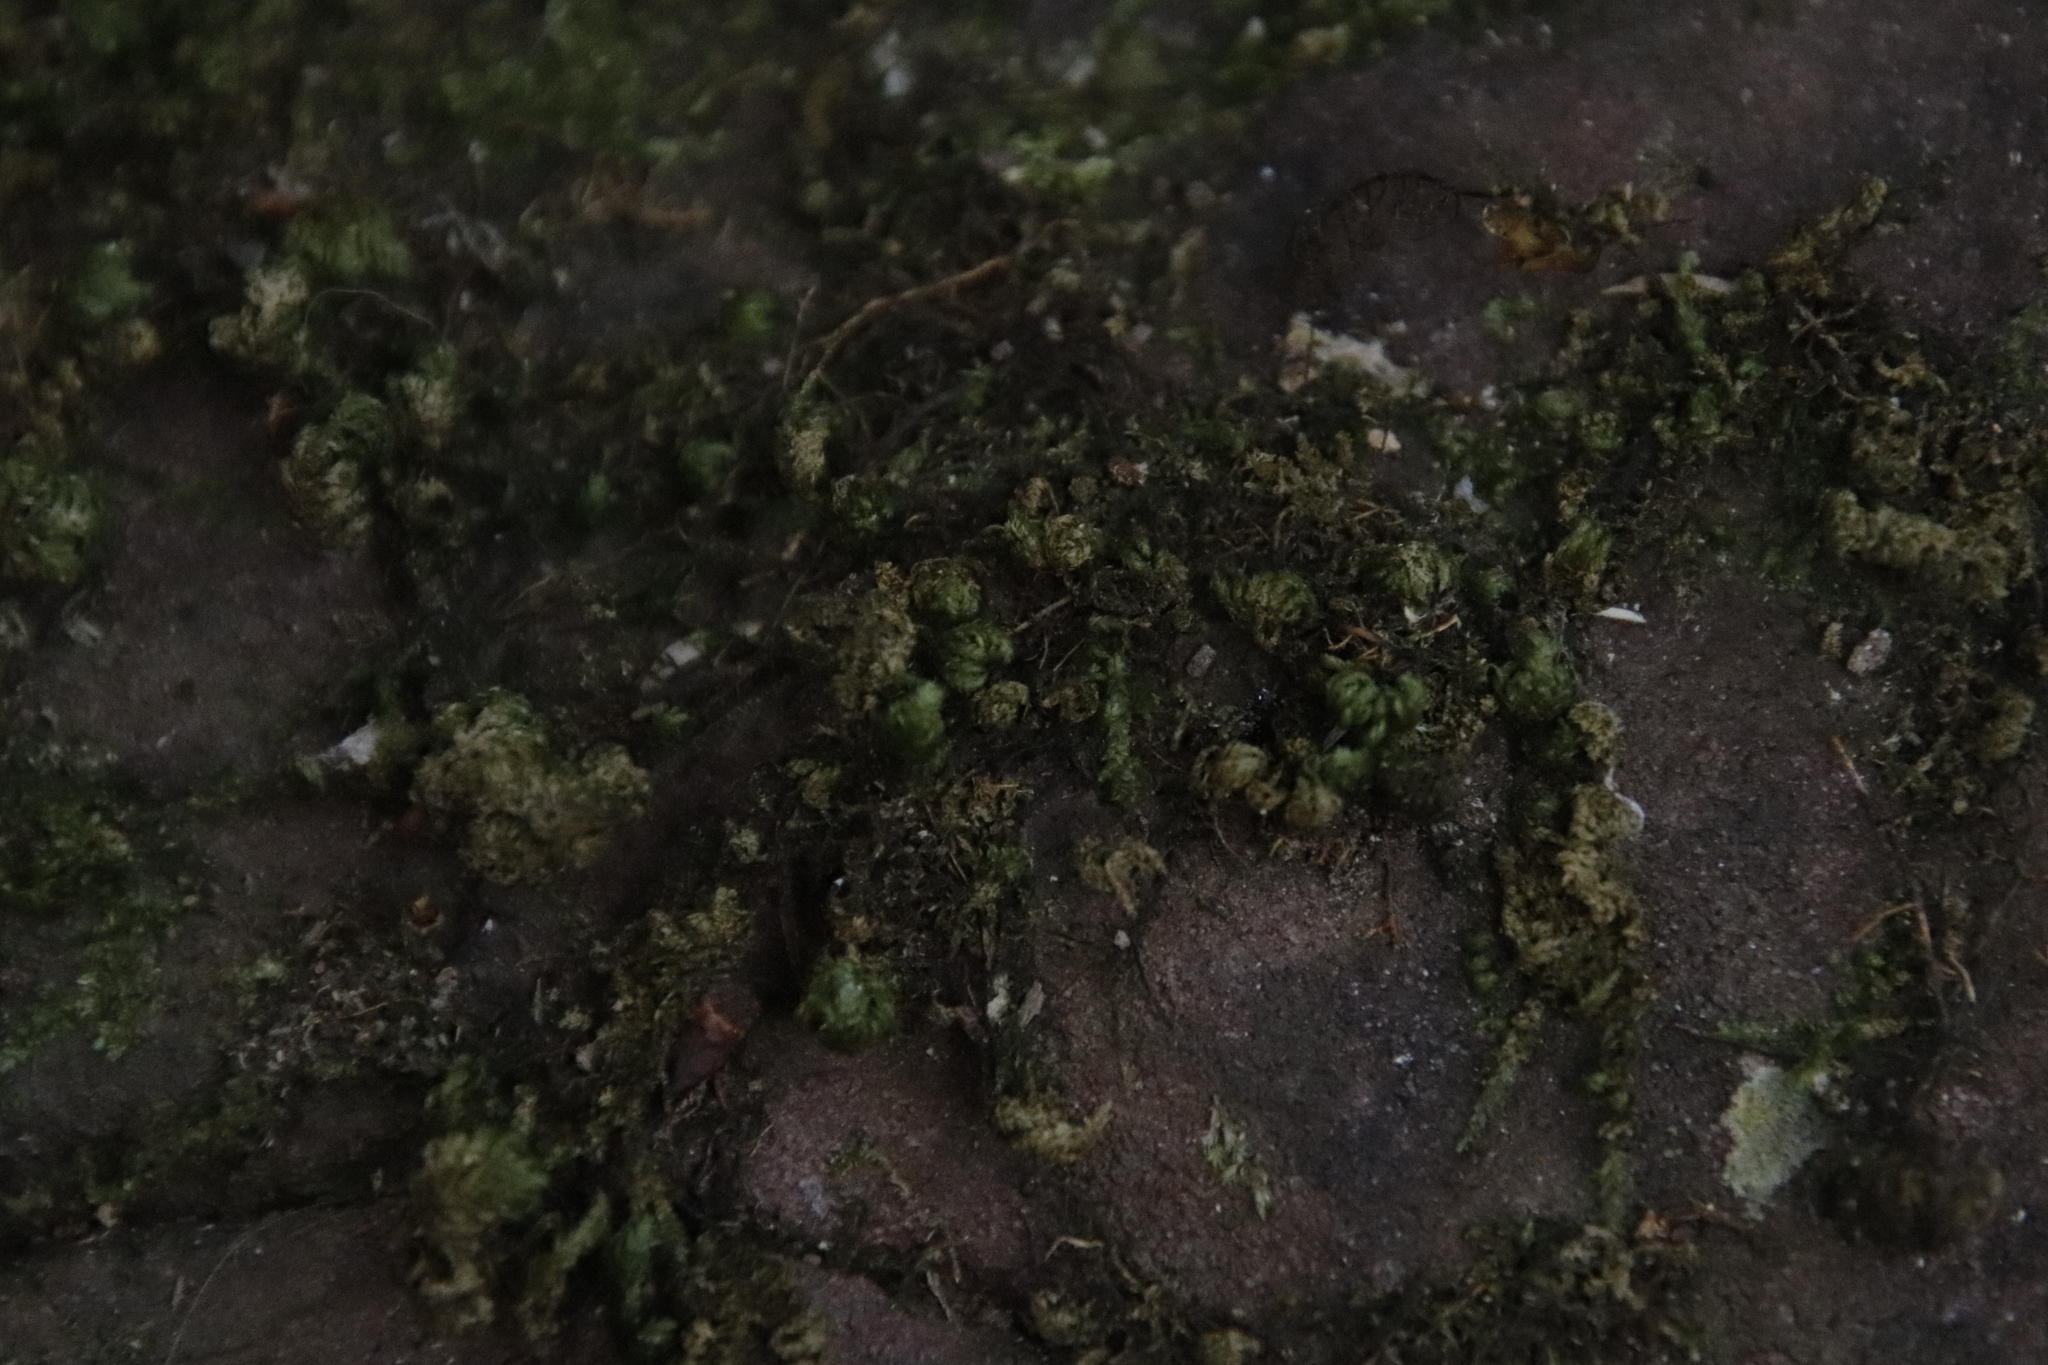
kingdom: Plantae
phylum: Bryophyta
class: Bryopsida
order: Hypnales
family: Neckeraceae
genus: Leptodon
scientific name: Leptodon smithii
